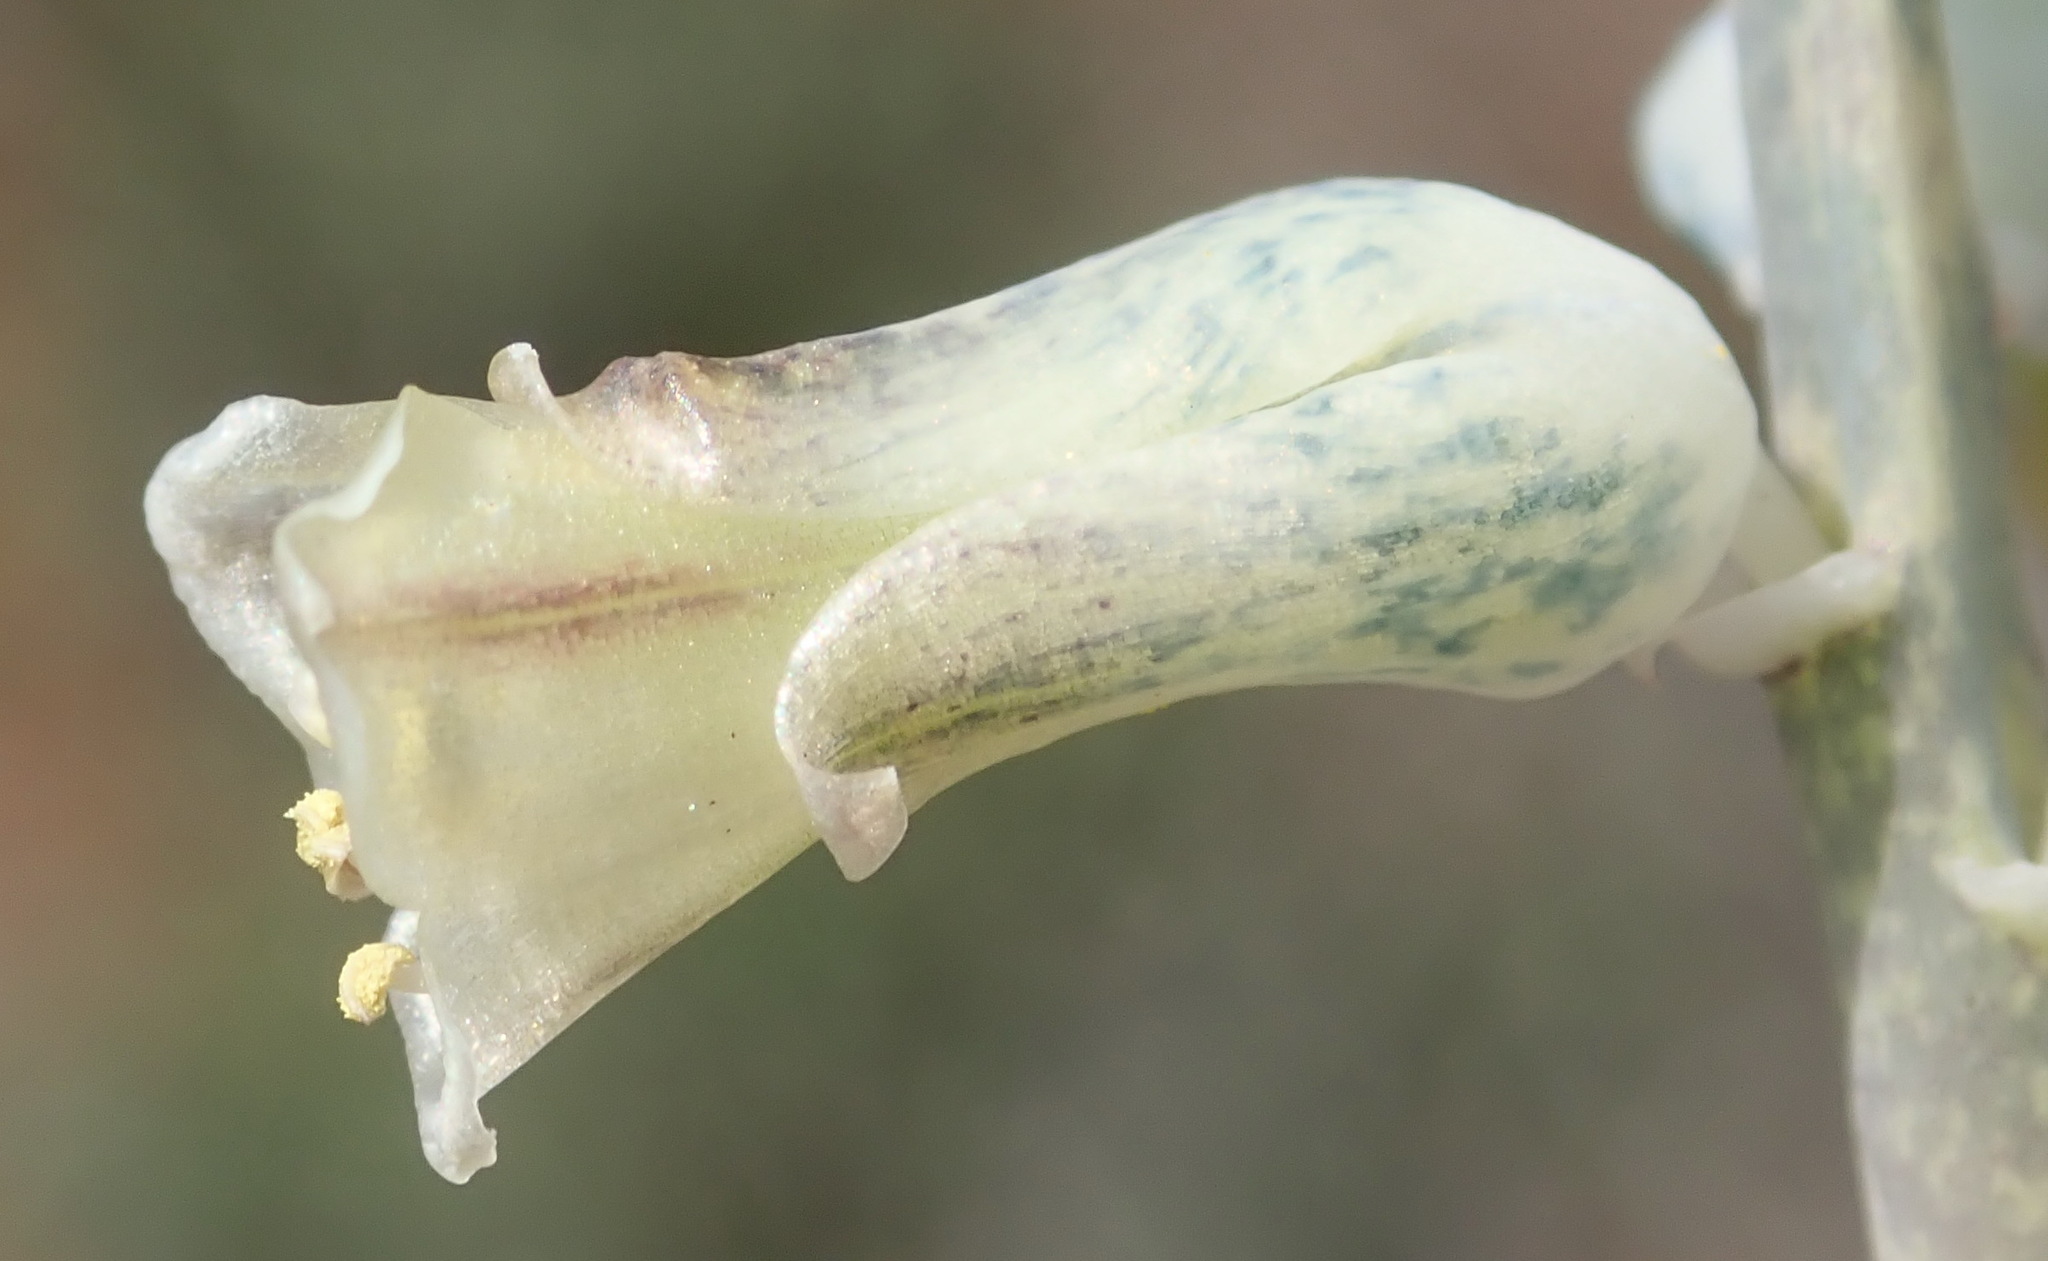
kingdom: Plantae
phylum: Tracheophyta
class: Liliopsida
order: Asparagales
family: Asparagaceae
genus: Lachenalia
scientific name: Lachenalia judithiae
